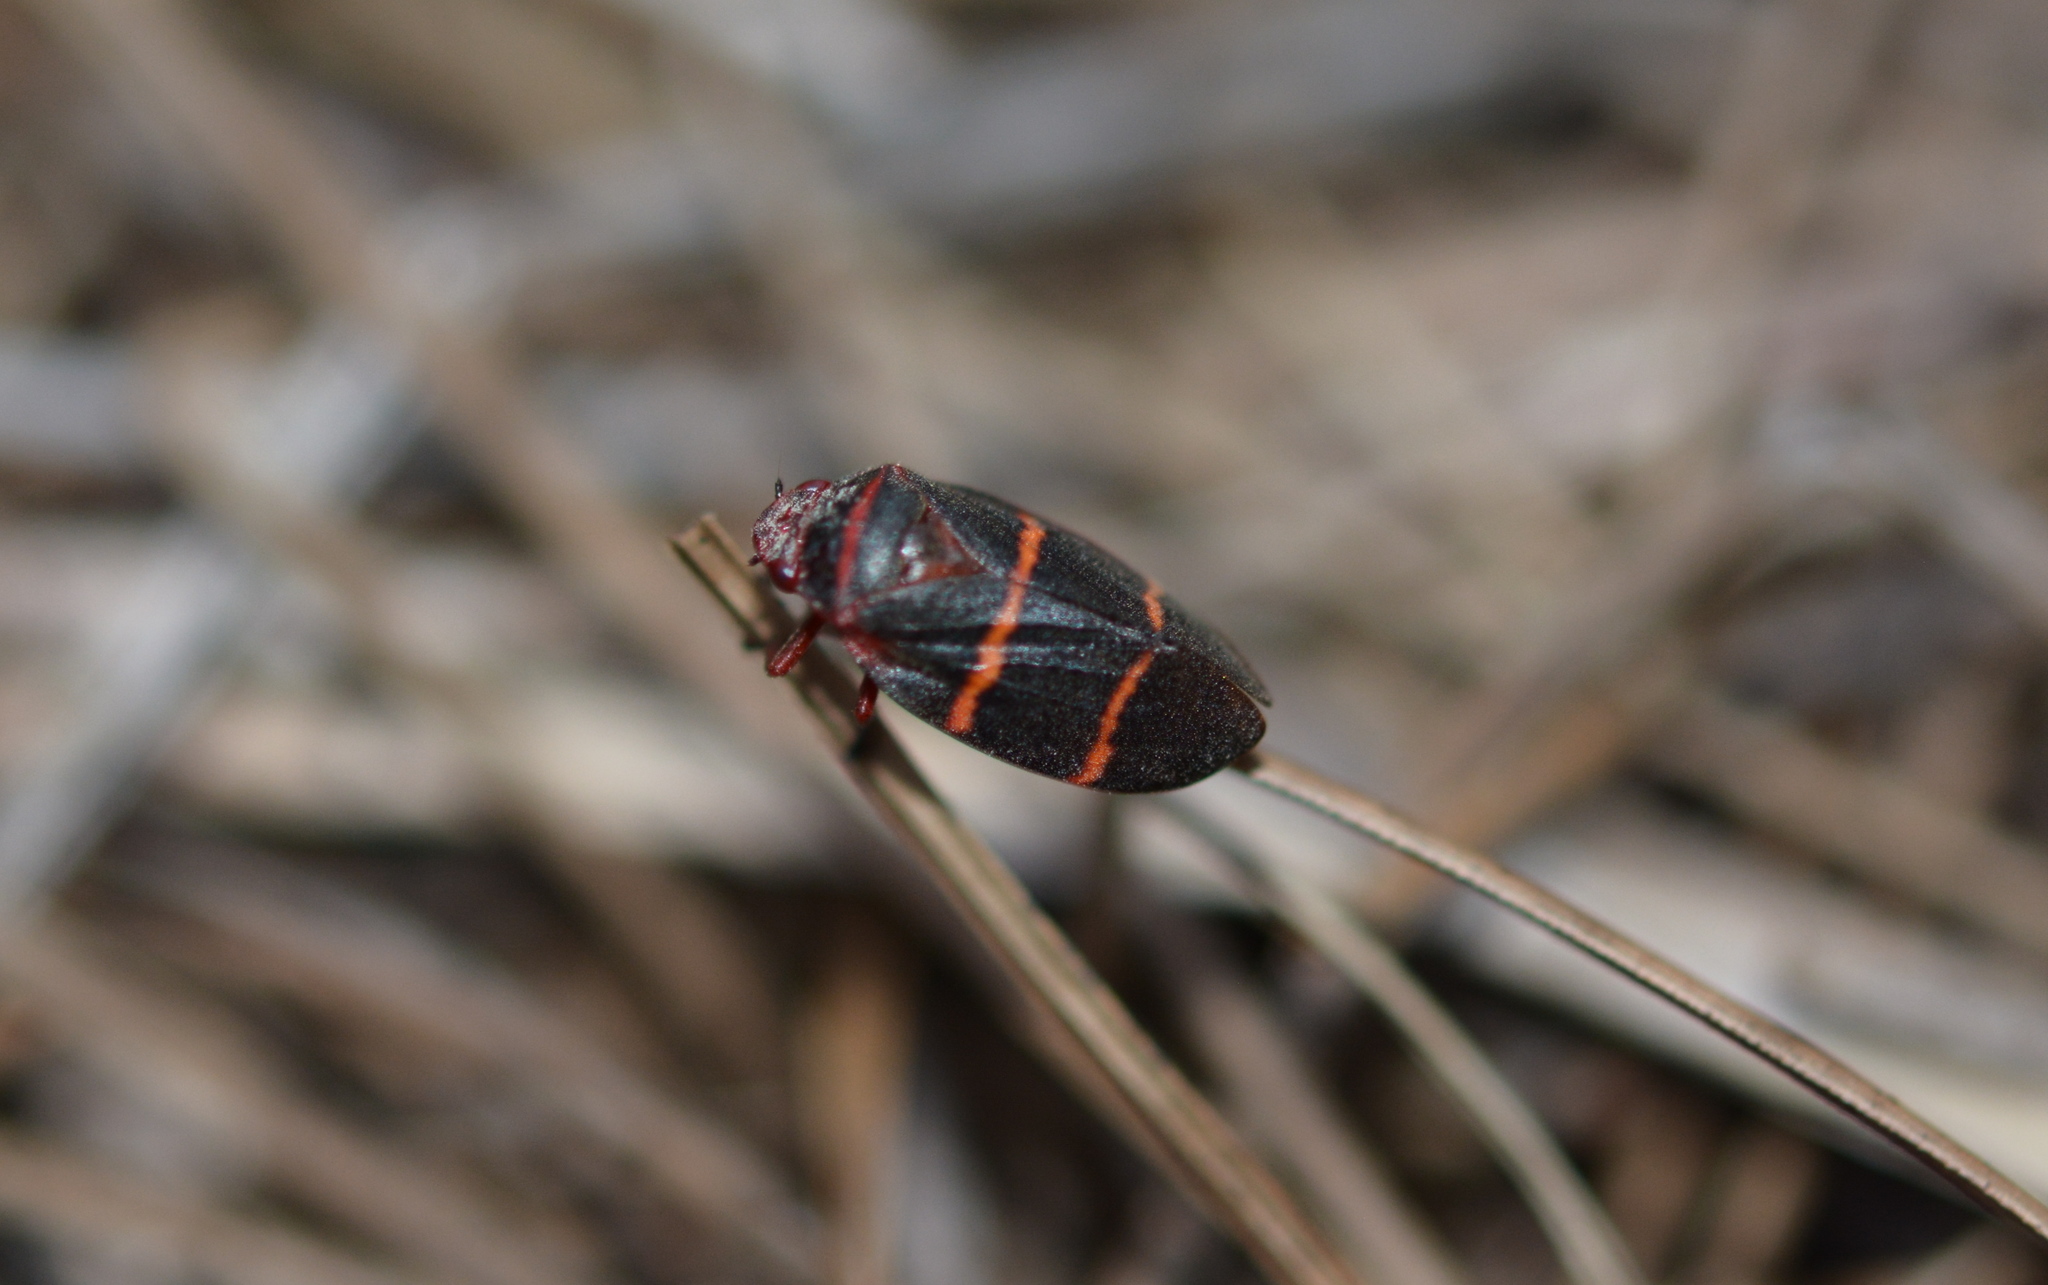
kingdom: Animalia
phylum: Arthropoda
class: Insecta
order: Hemiptera
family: Cercopidae
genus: Prosapia
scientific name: Prosapia bicincta
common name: Twolined spittlebug
